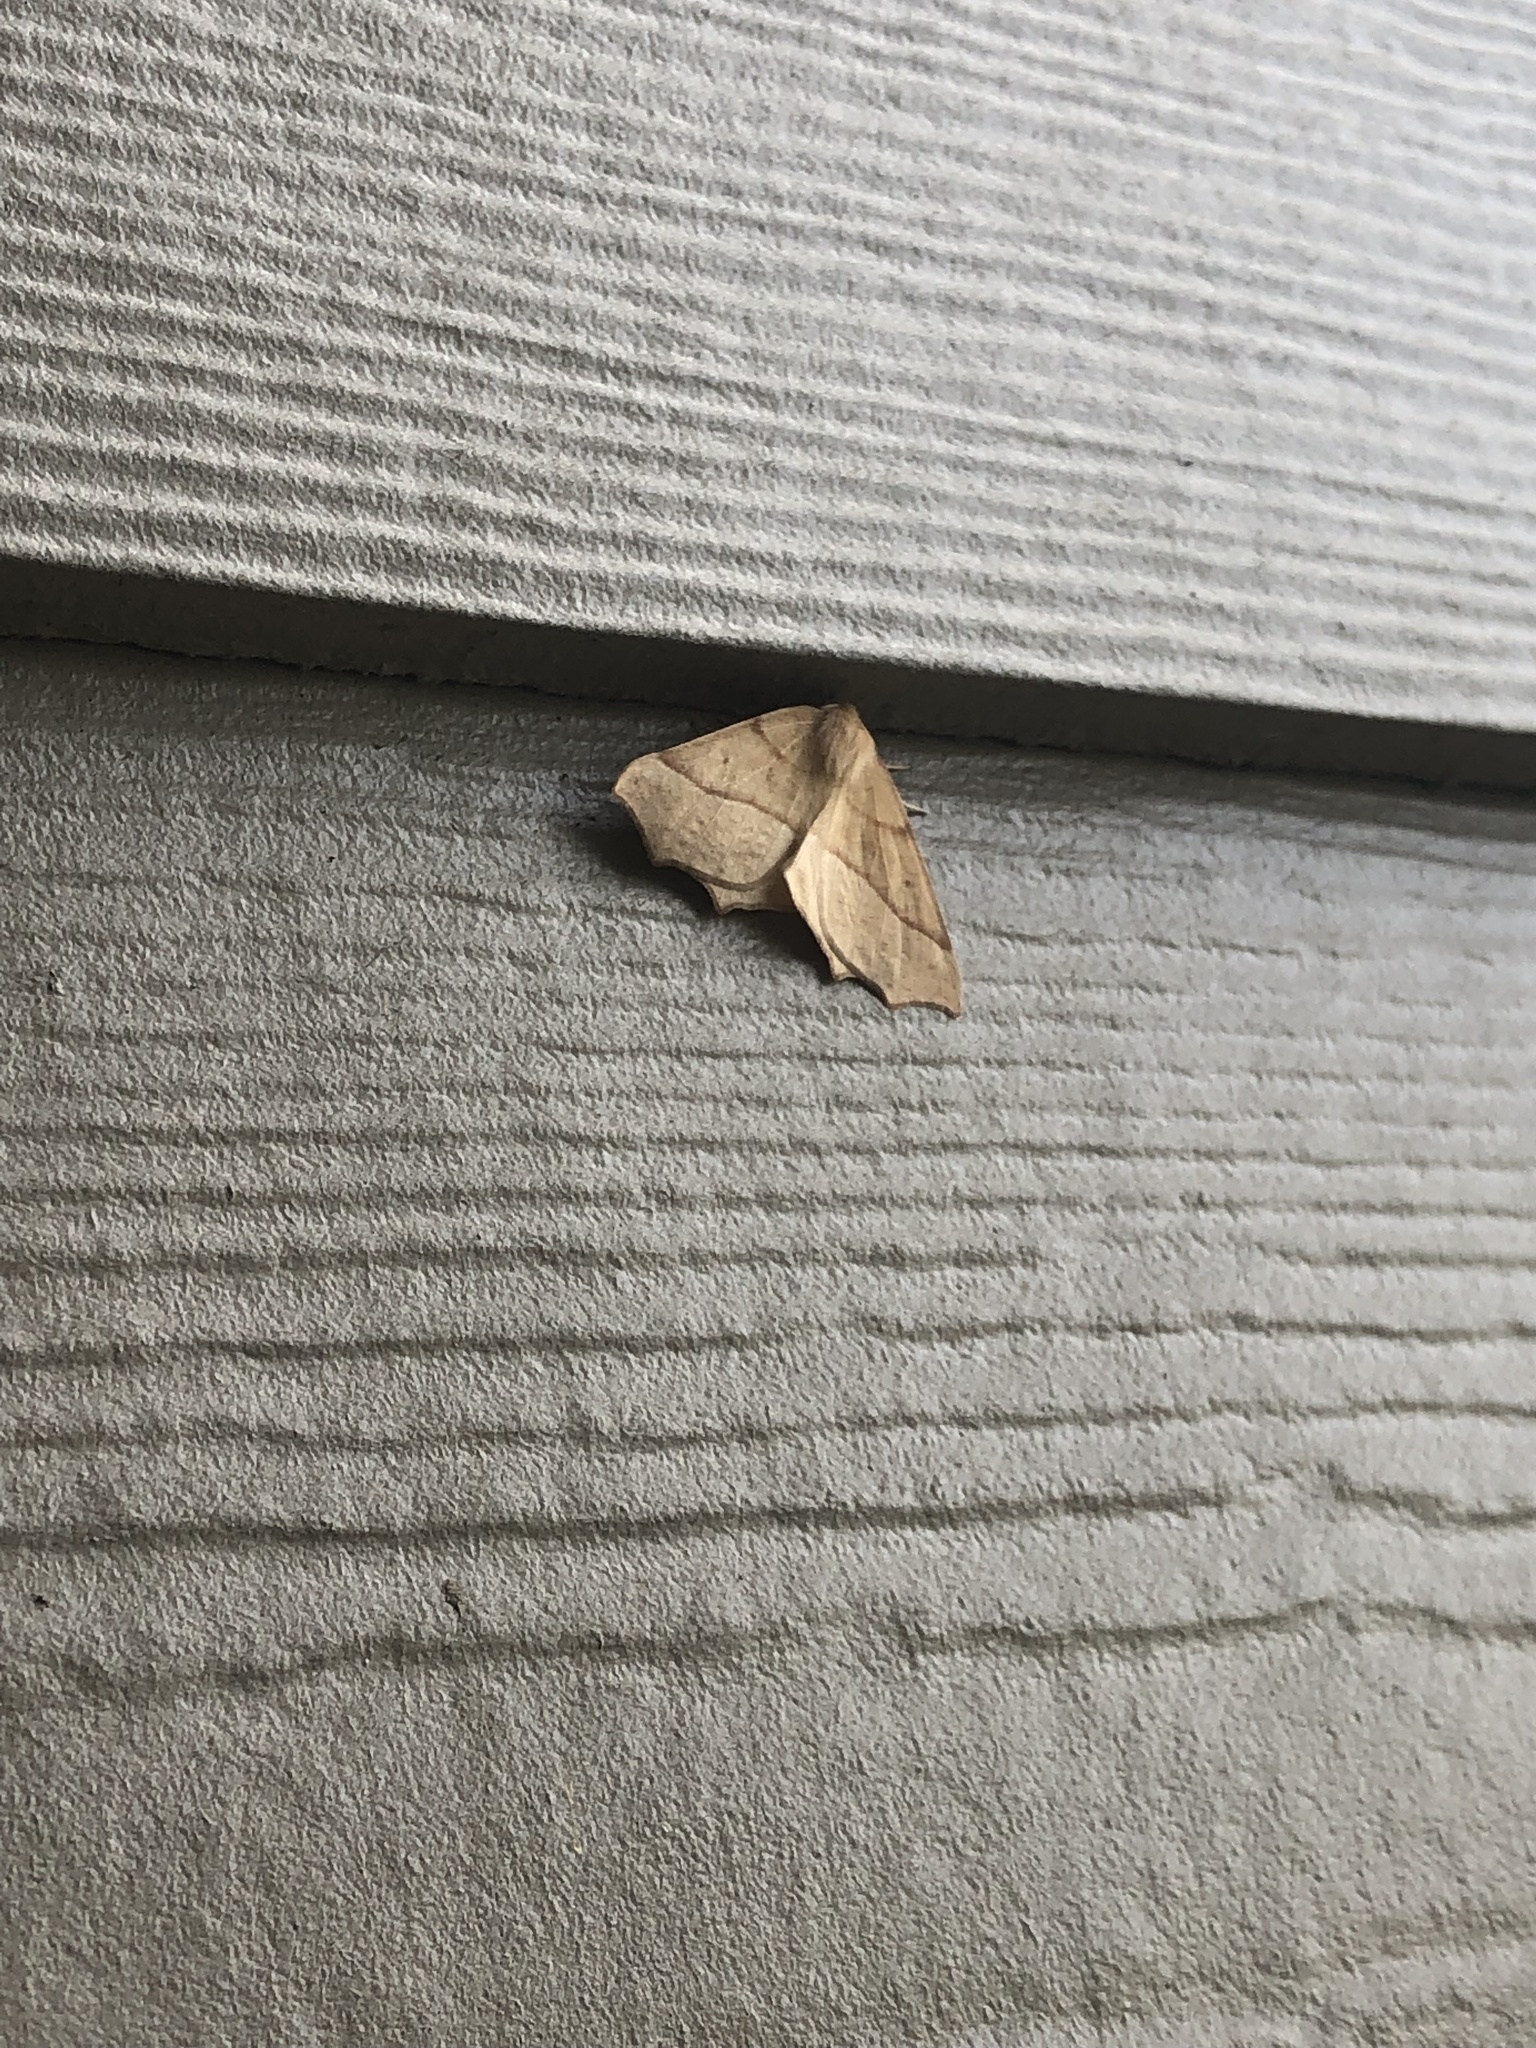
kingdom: Animalia
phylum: Arthropoda
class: Insecta
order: Lepidoptera
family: Geometridae
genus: Synaxis
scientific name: Synaxis jubararia
